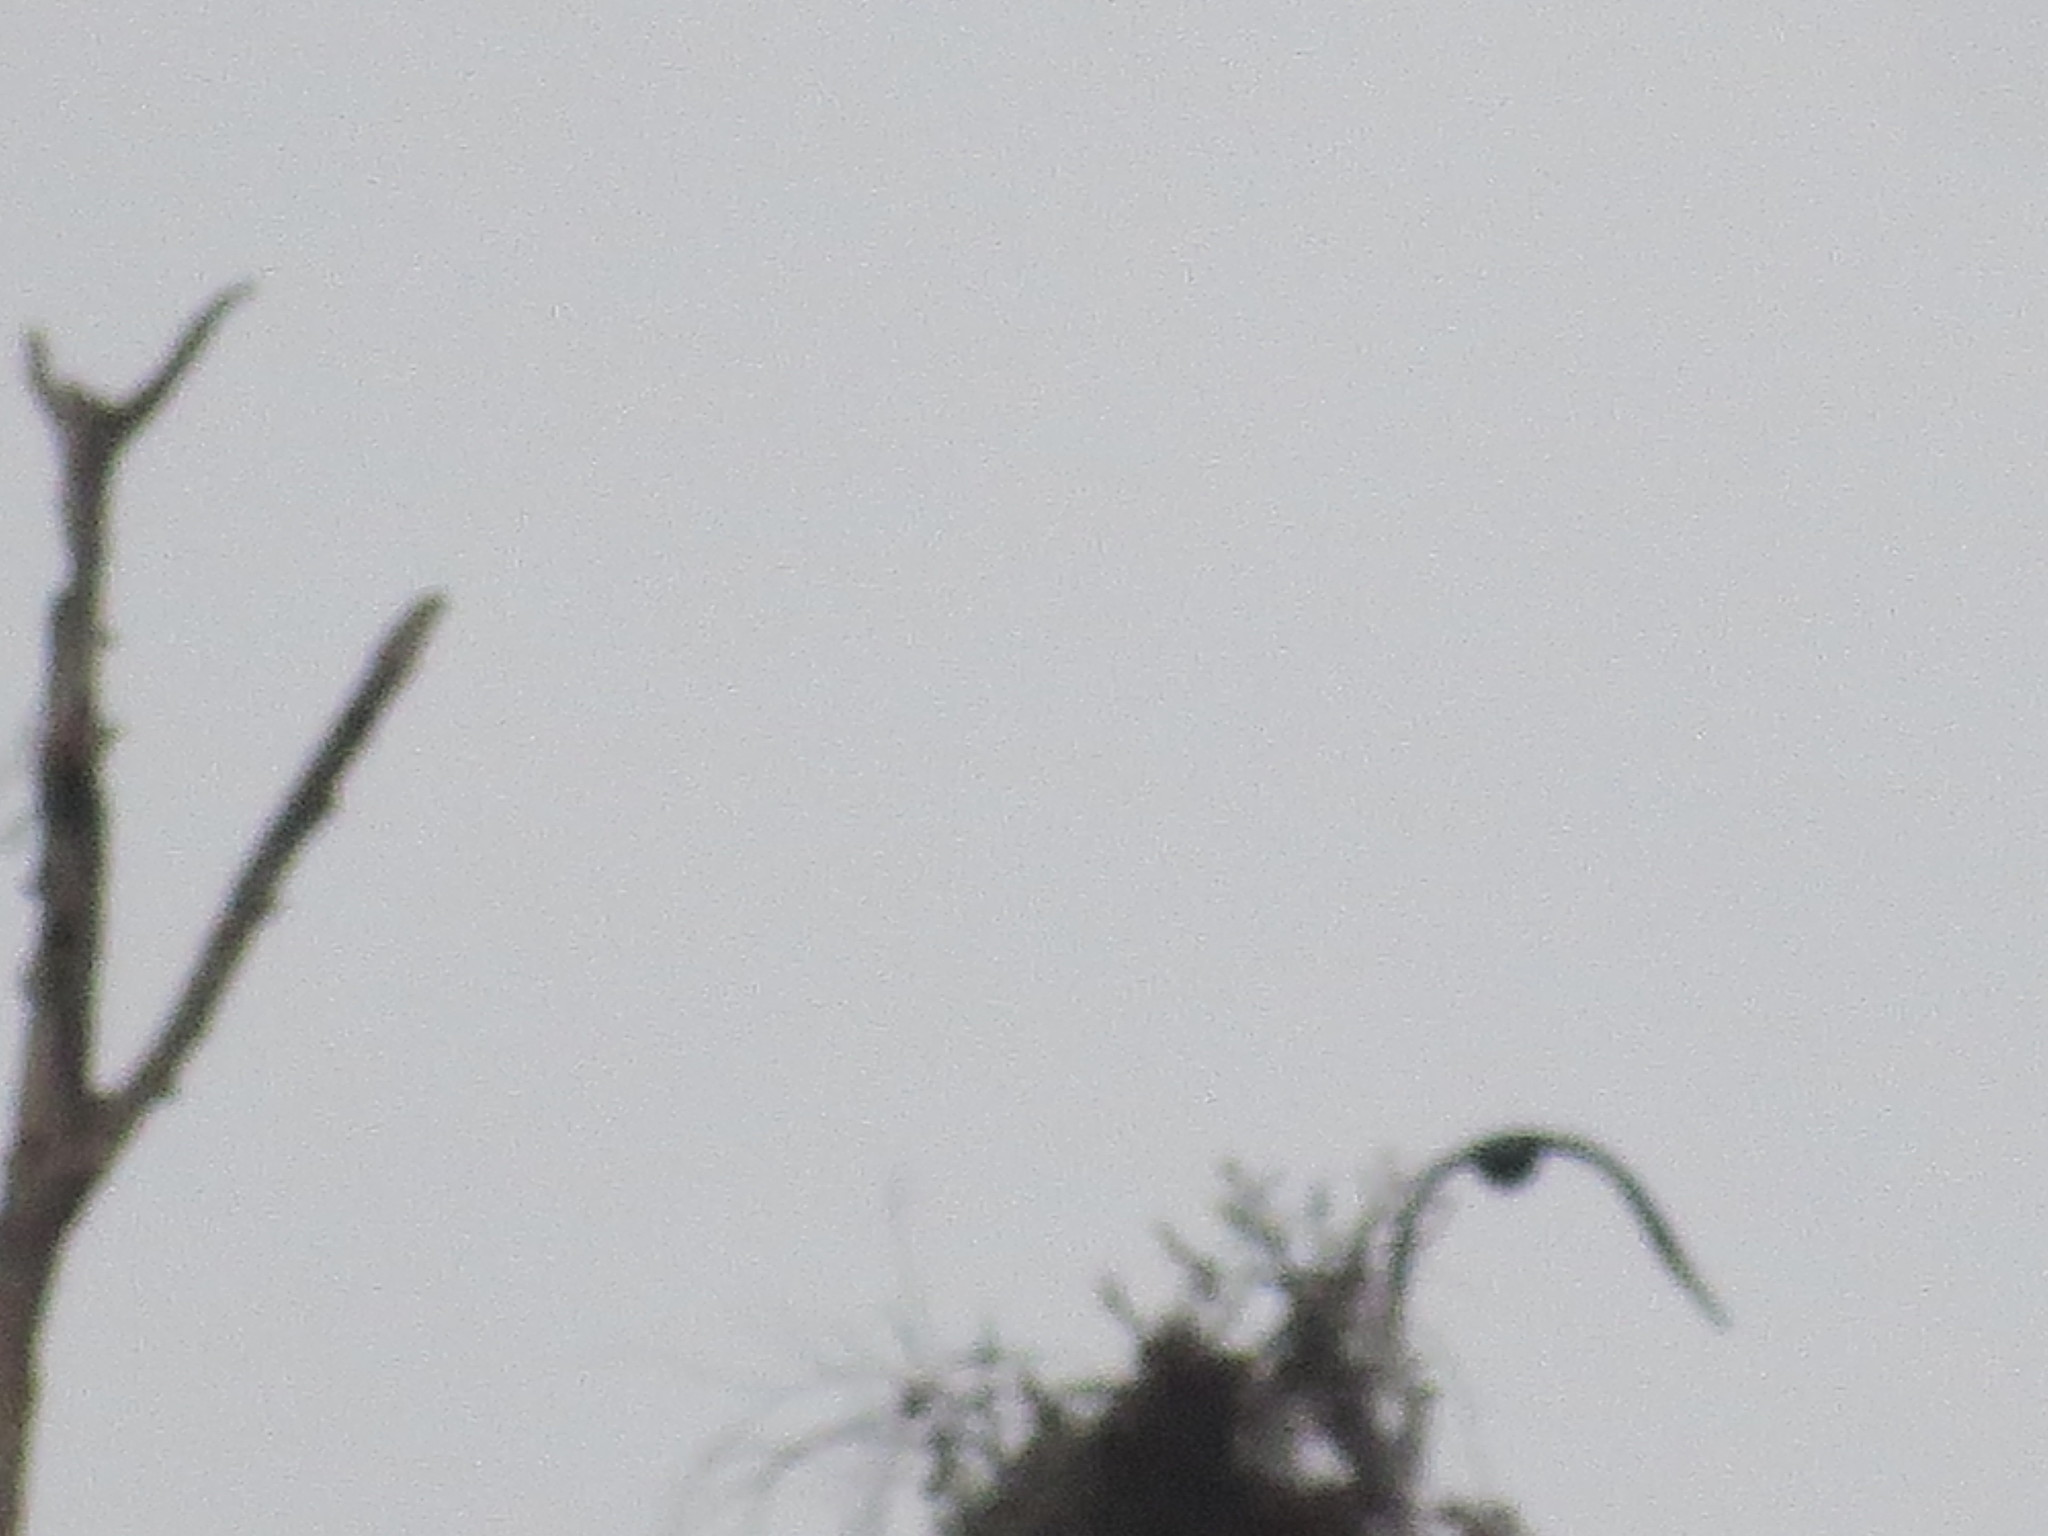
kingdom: Animalia
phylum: Chordata
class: Aves
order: Accipitriformes
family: Cathartidae
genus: Coragyps
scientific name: Coragyps atratus
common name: Black vulture
